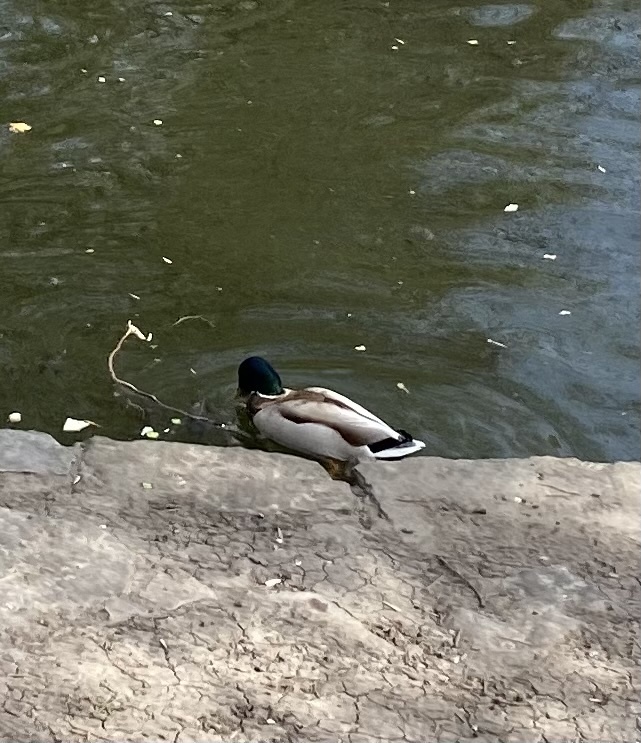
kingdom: Animalia
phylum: Chordata
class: Aves
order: Anseriformes
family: Anatidae
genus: Anas
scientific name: Anas platyrhynchos
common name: Mallard
